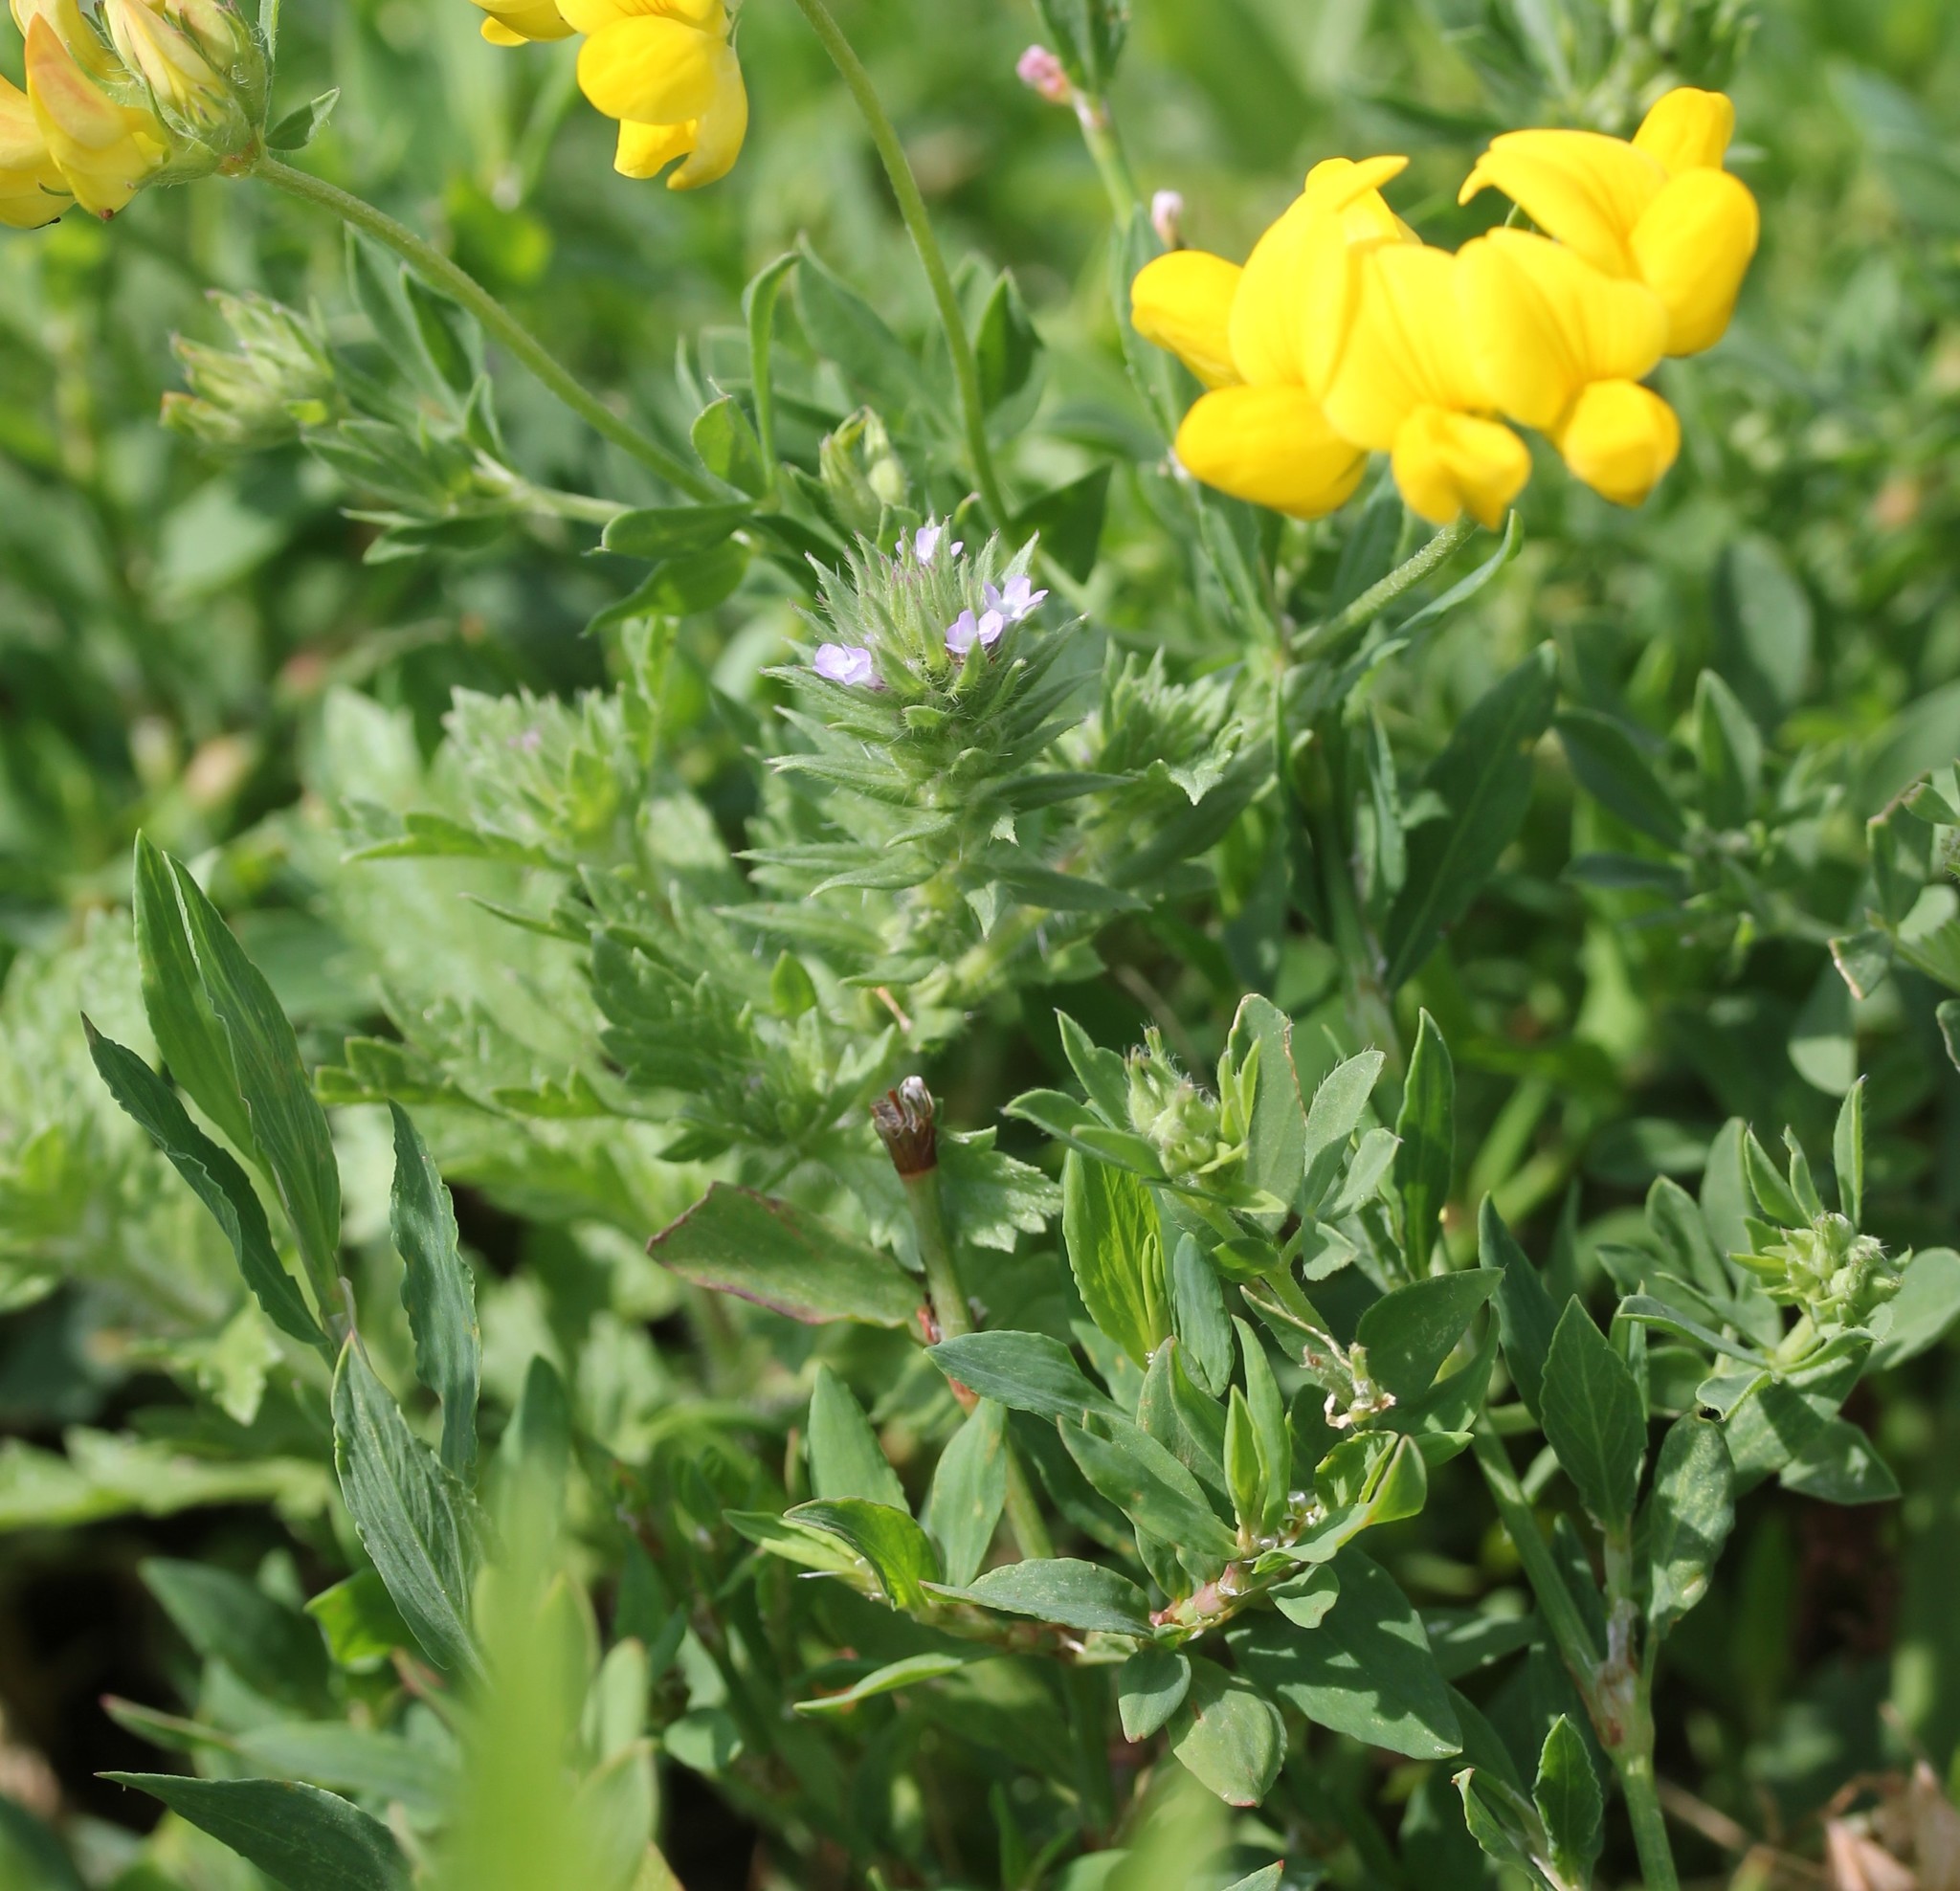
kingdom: Plantae
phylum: Tracheophyta
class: Magnoliopsida
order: Lamiales
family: Verbenaceae
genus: Verbena
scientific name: Verbena bracteata
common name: Bracted vervain
